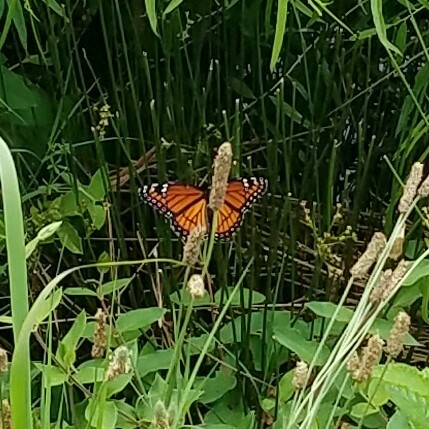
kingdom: Animalia
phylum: Arthropoda
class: Insecta
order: Lepidoptera
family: Nymphalidae
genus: Limenitis
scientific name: Limenitis archippus
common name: Viceroy
